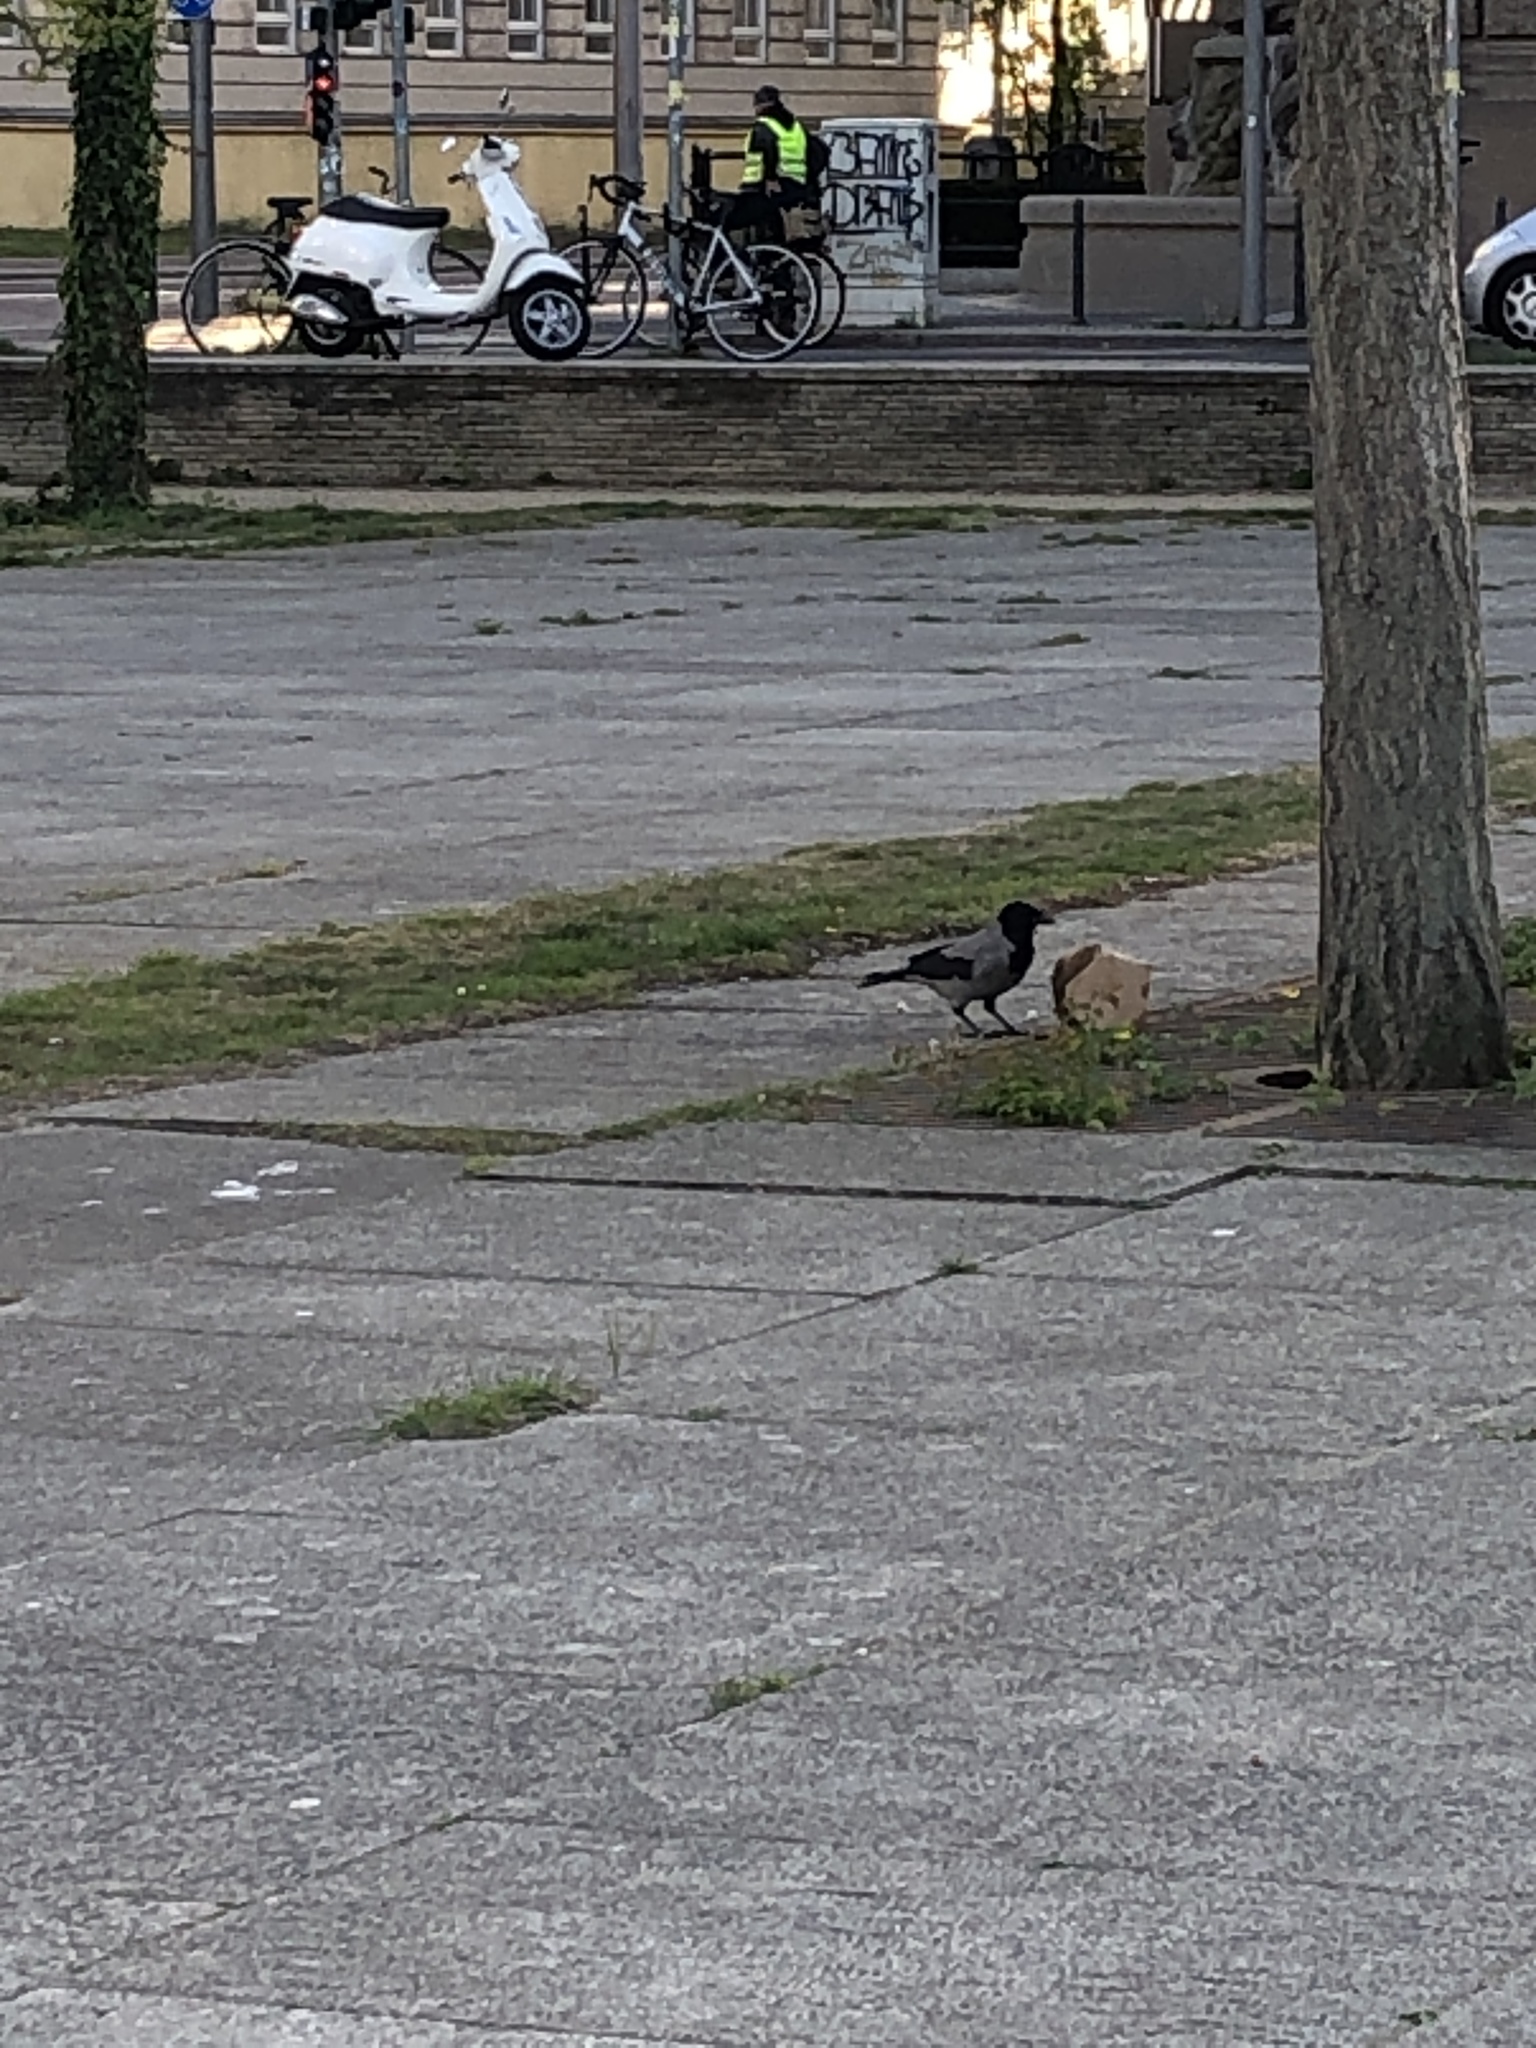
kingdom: Animalia
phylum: Chordata
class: Aves
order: Passeriformes
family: Corvidae
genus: Corvus
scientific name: Corvus cornix
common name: Hooded crow
